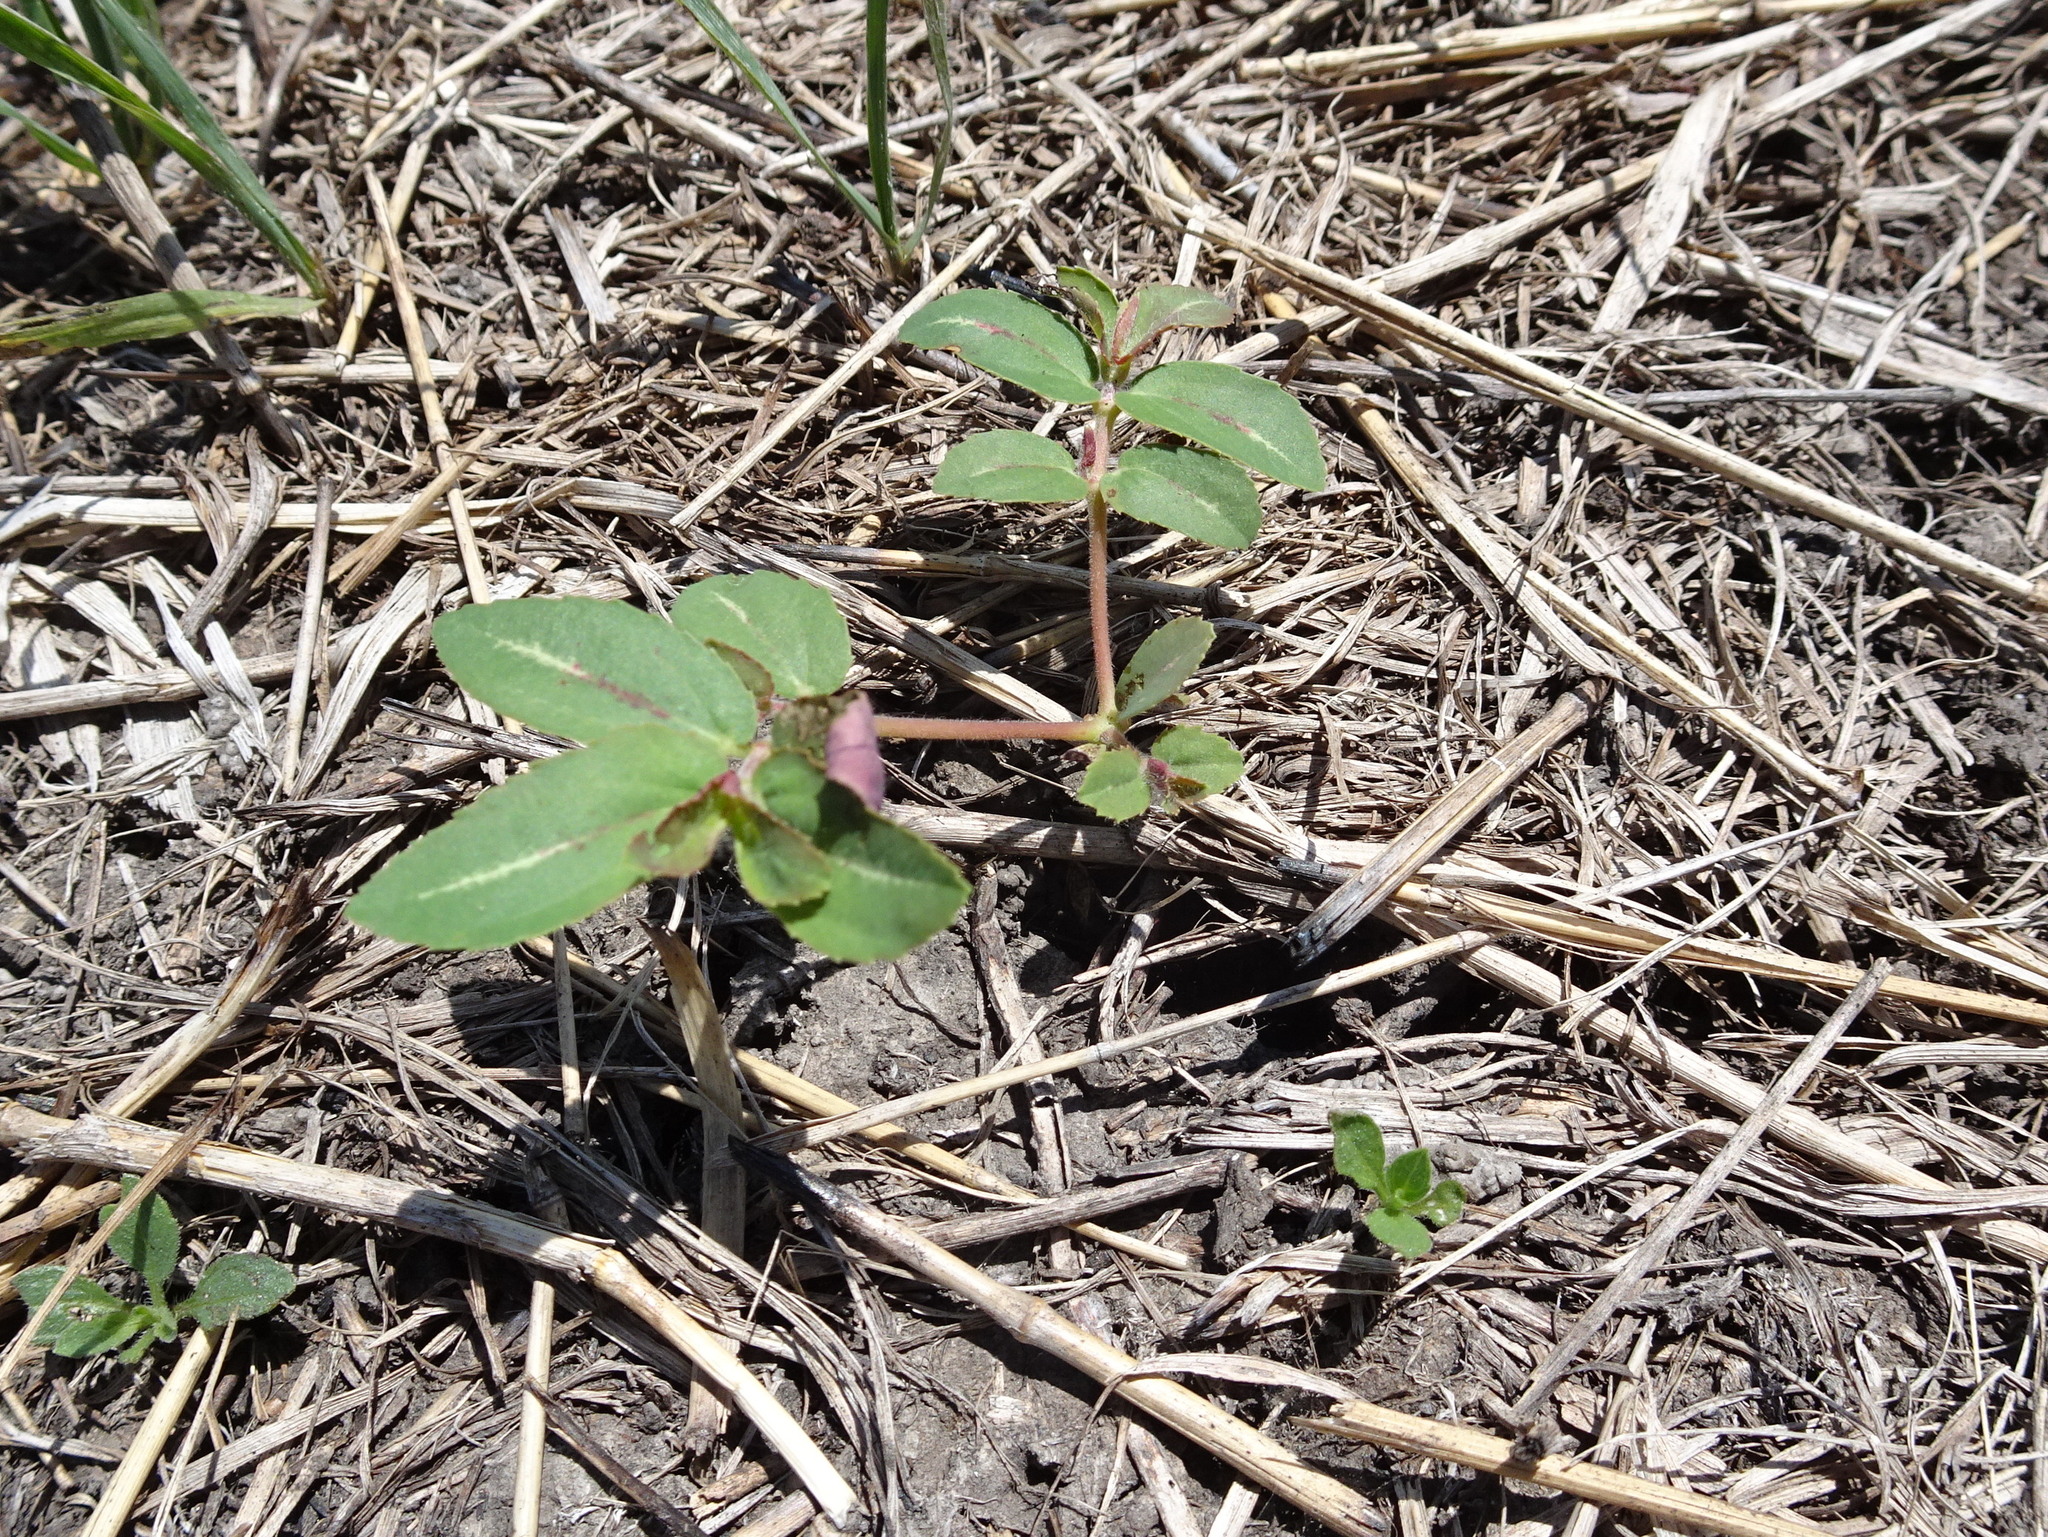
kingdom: Plantae
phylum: Tracheophyta
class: Magnoliopsida
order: Malpighiales
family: Euphorbiaceae
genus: Euphorbia
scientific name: Euphorbia nutans
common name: Eyebane
